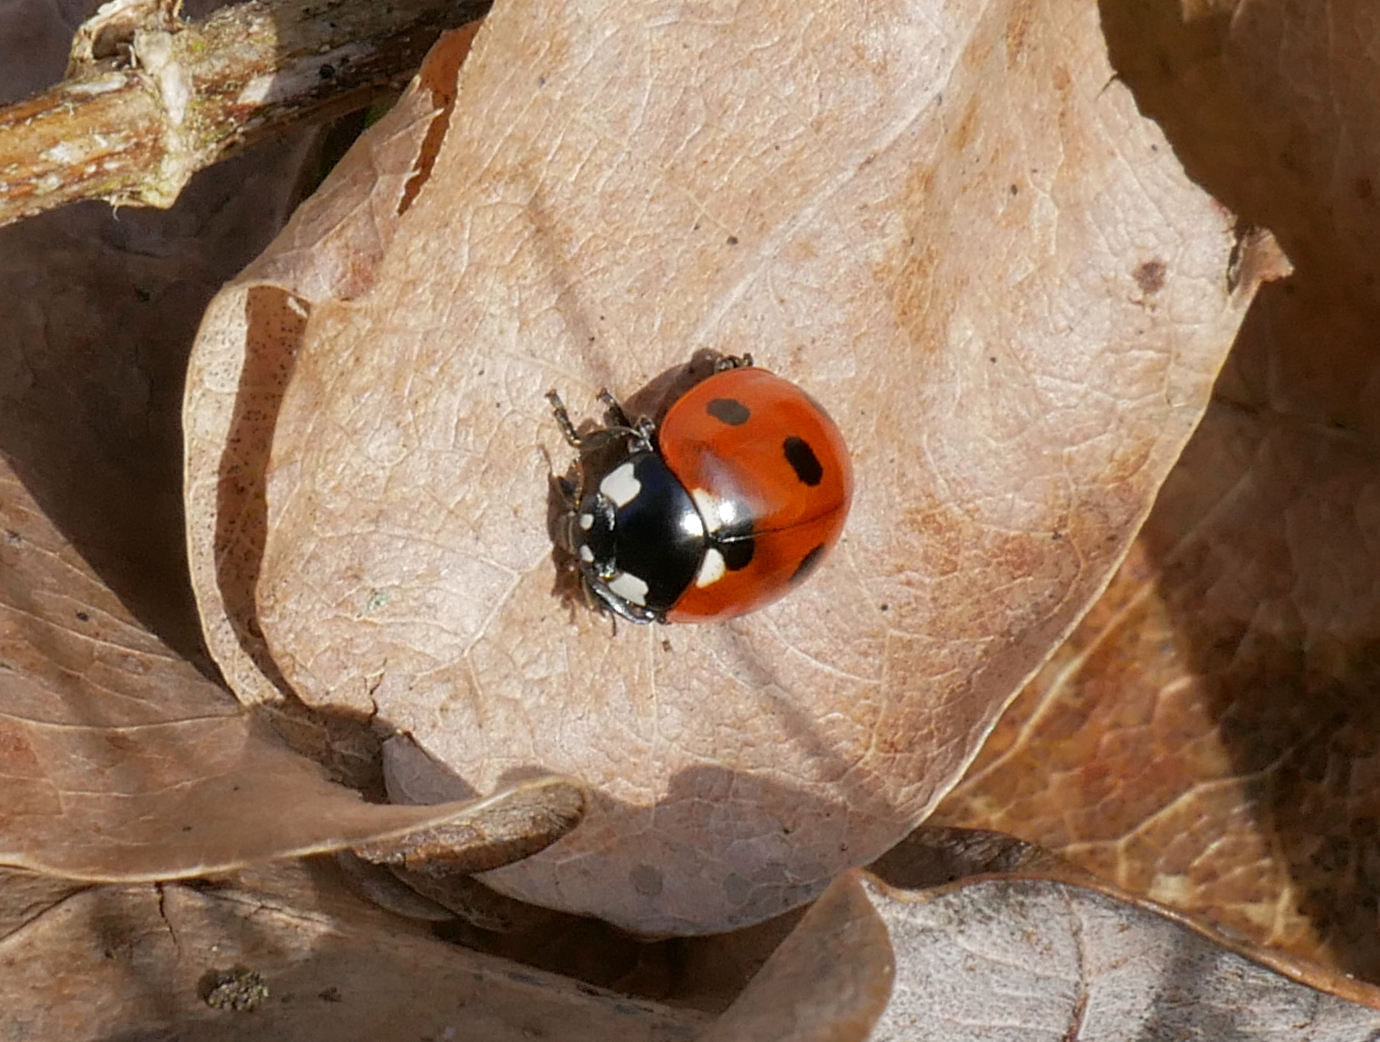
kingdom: Animalia
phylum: Arthropoda
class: Insecta
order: Coleoptera
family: Coccinellidae
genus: Coccinella
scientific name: Coccinella septempunctata
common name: Sevenspotted lady beetle
